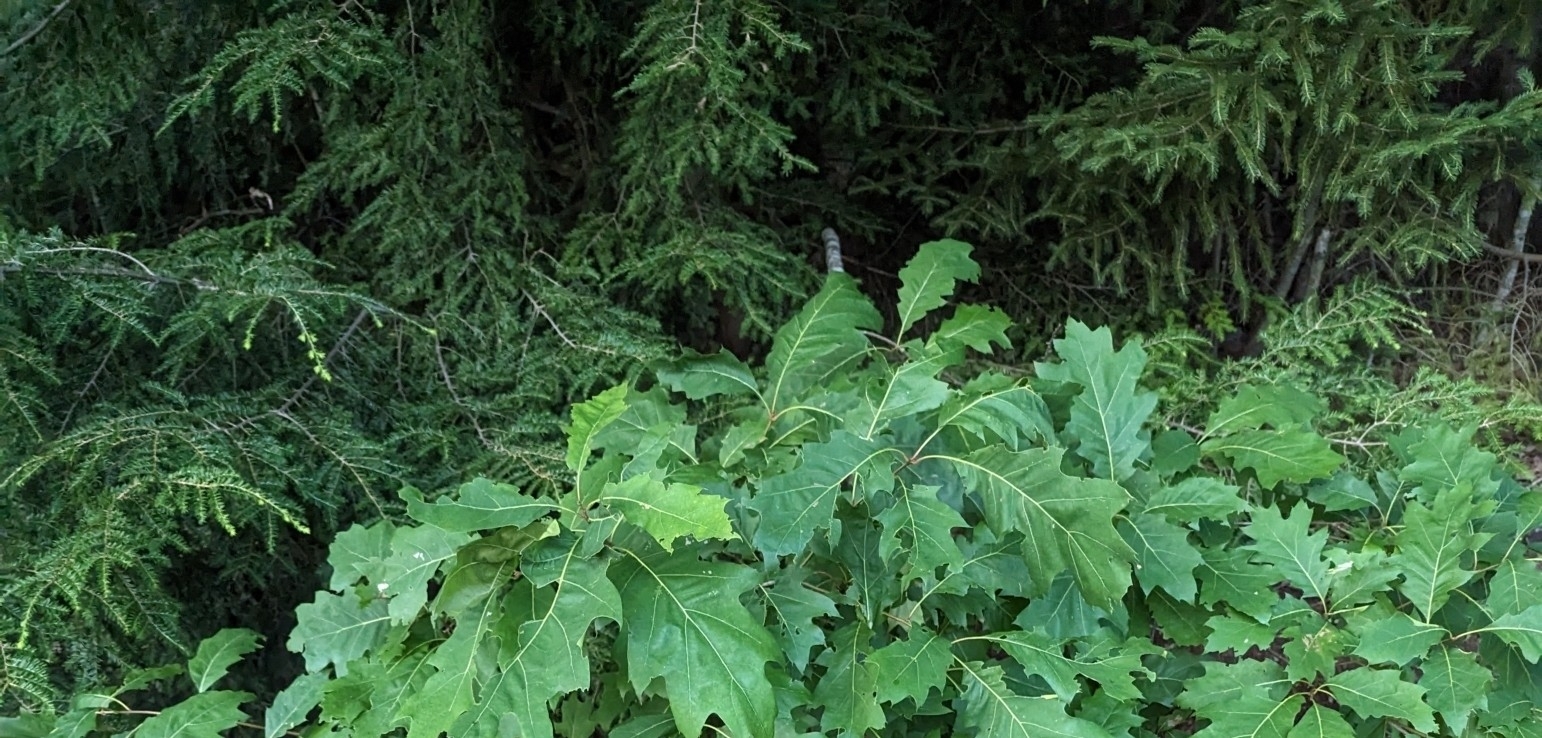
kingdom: Plantae
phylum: Tracheophyta
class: Pinopsida
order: Pinales
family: Pinaceae
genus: Tsuga
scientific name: Tsuga canadensis
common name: Eastern hemlock
